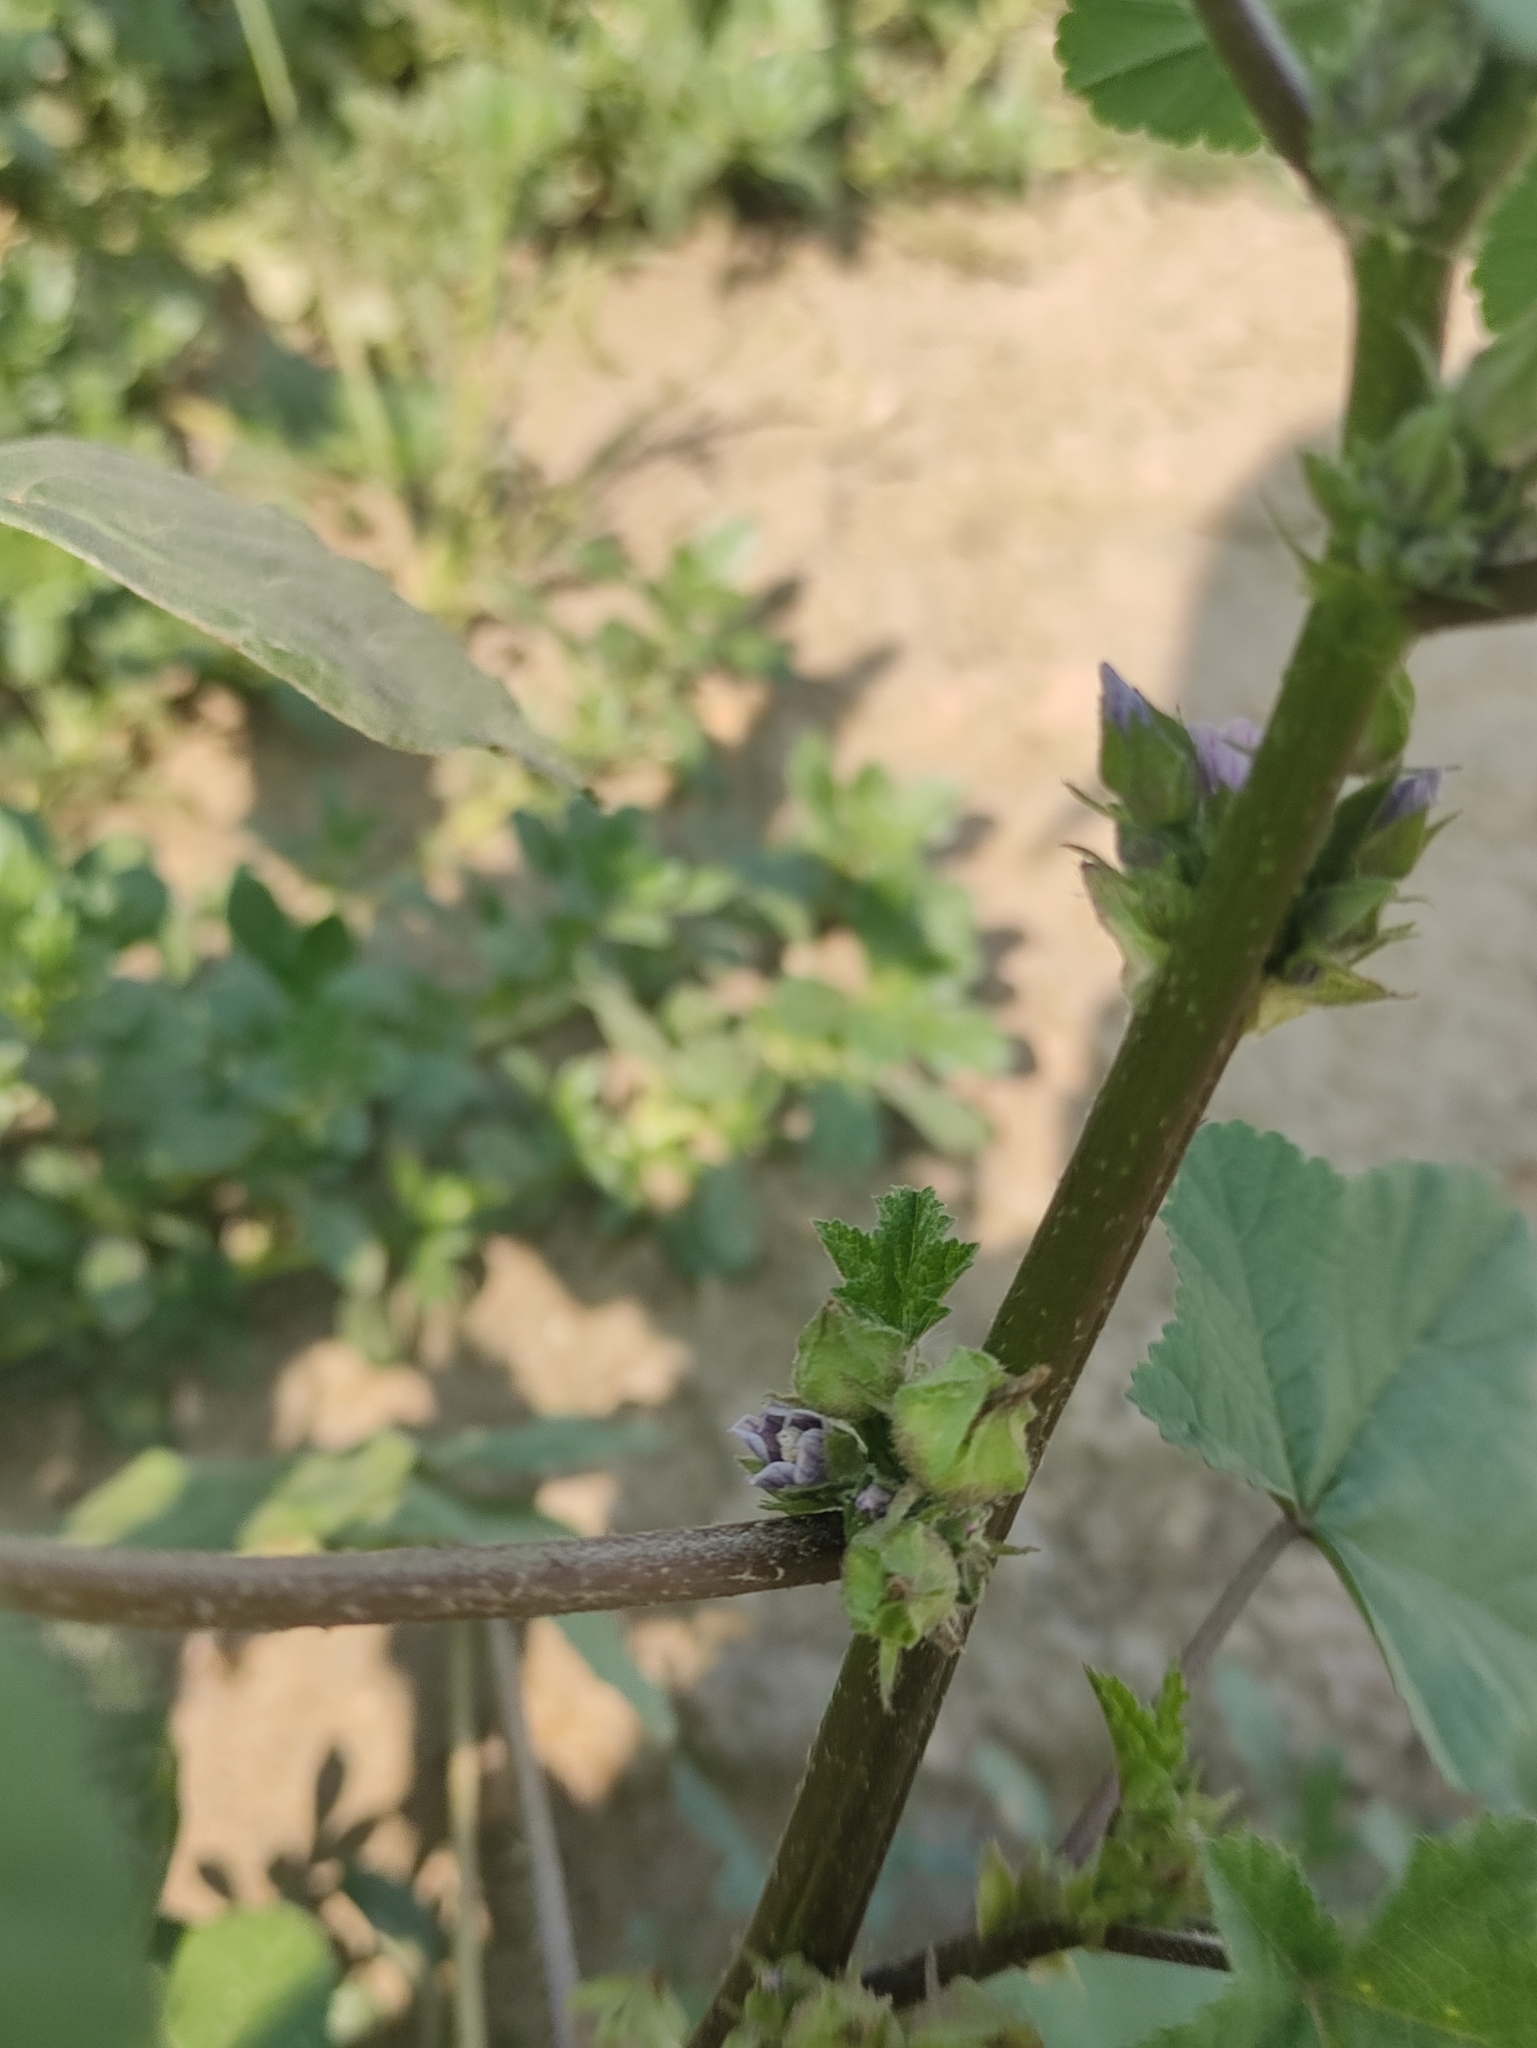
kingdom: Plantae
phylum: Tracheophyta
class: Magnoliopsida
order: Malvales
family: Malvaceae
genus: Malva
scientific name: Malva verticillata
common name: Chinese mallow
